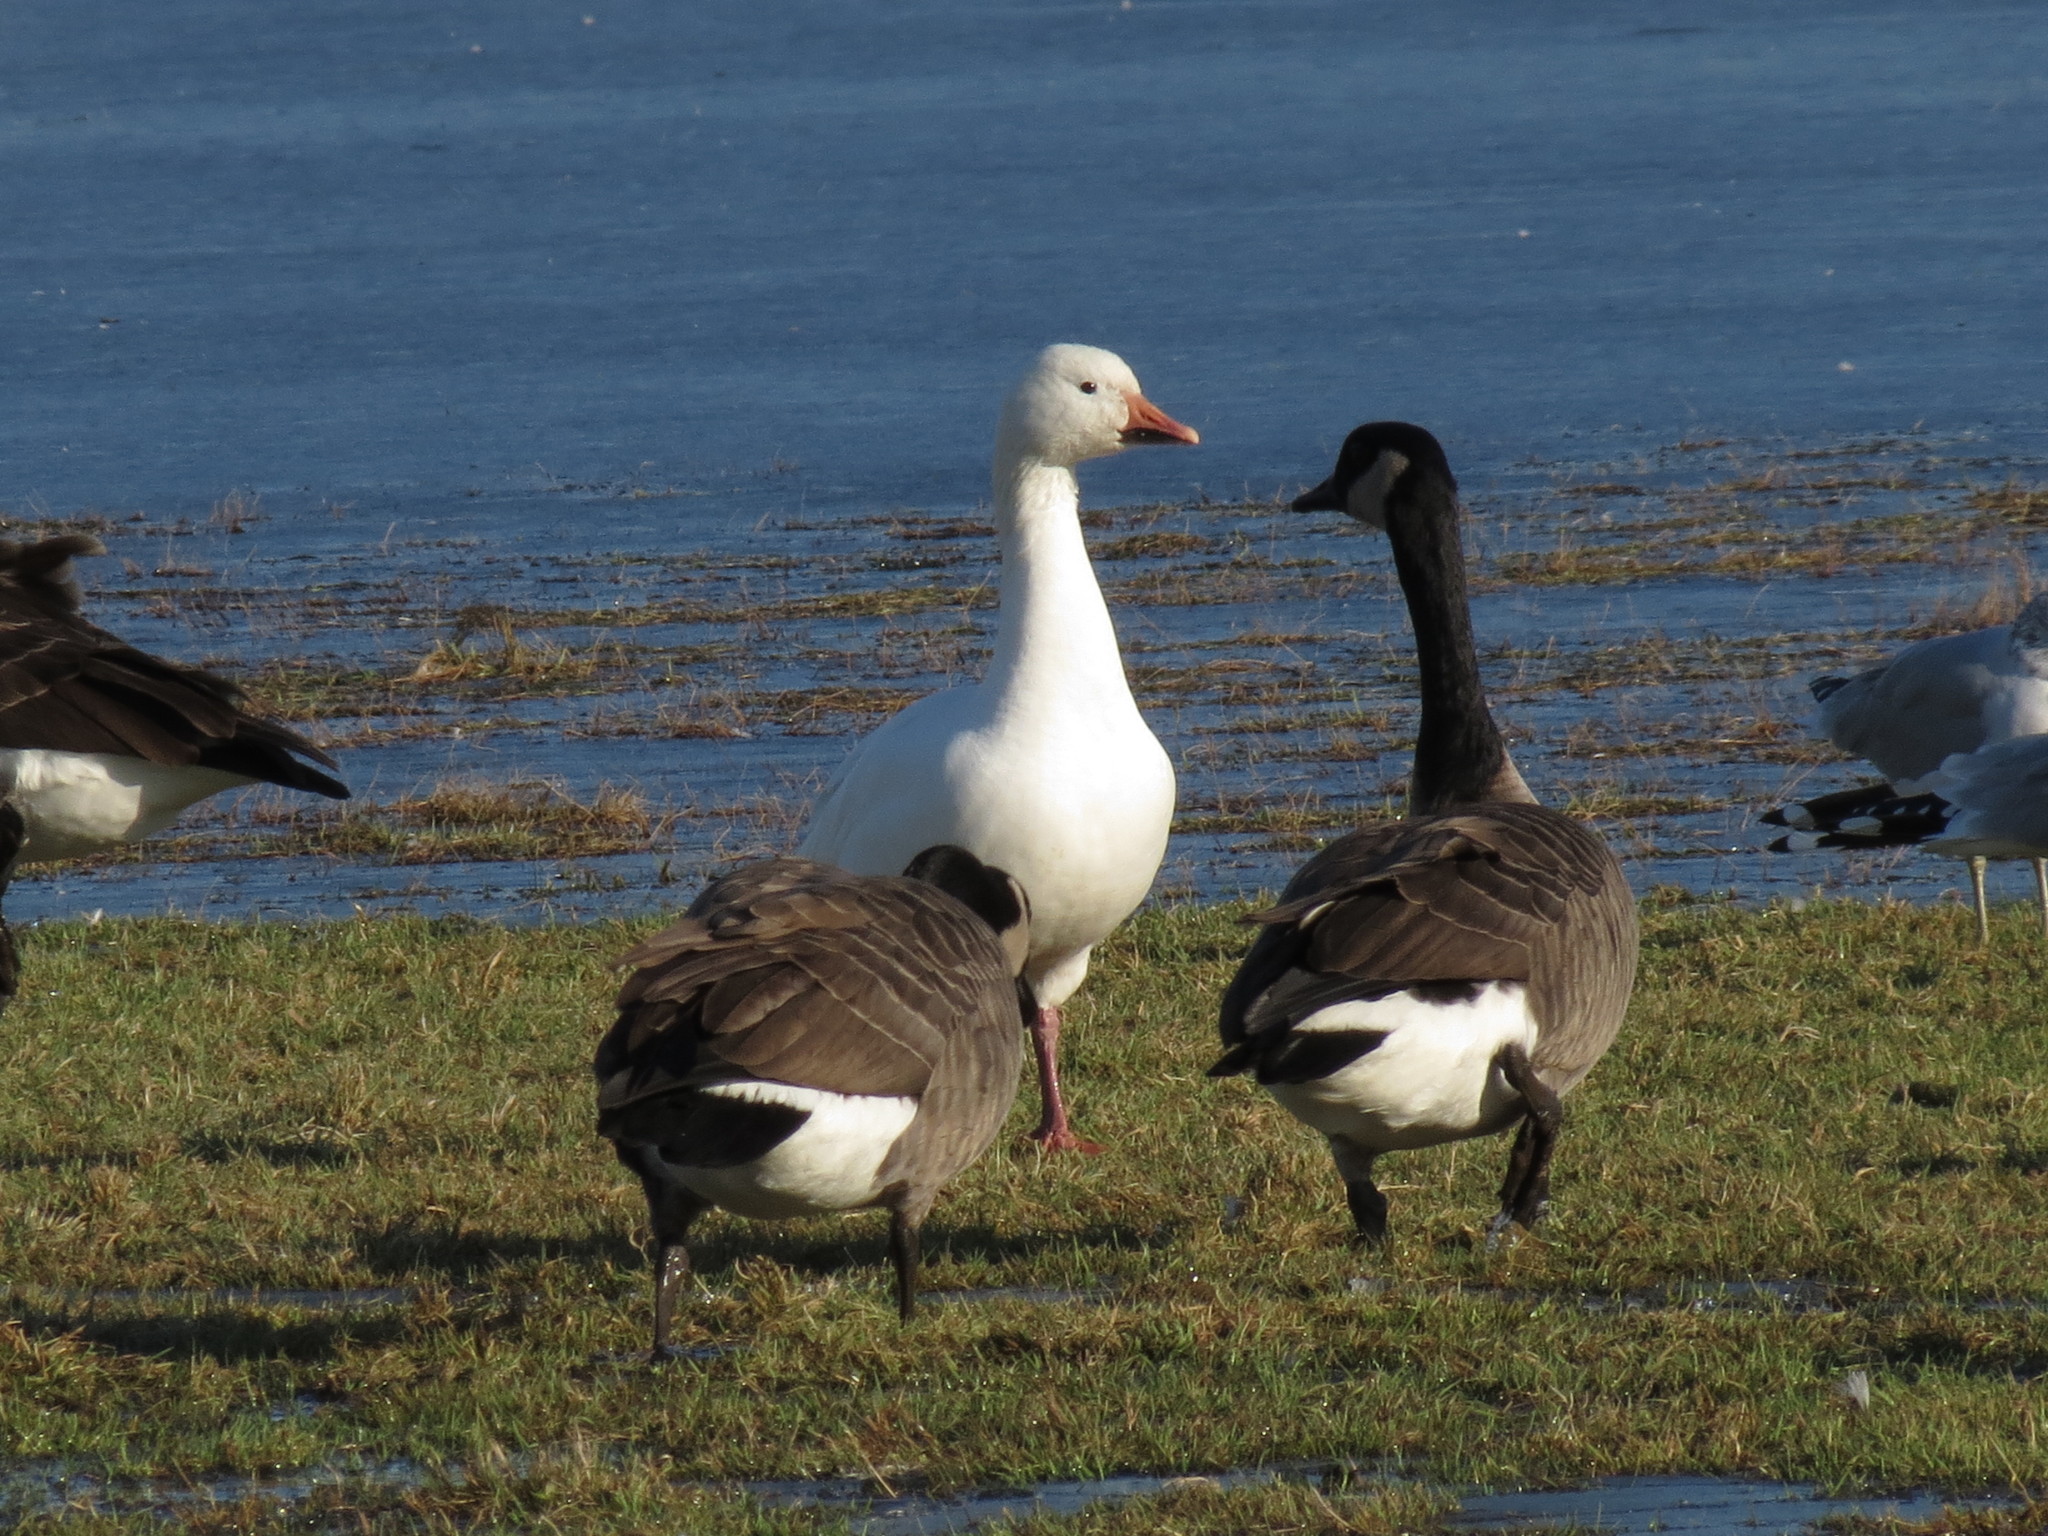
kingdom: Animalia
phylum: Chordata
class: Aves
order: Anseriformes
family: Anatidae
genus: Anser
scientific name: Anser caerulescens
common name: Snow goose
